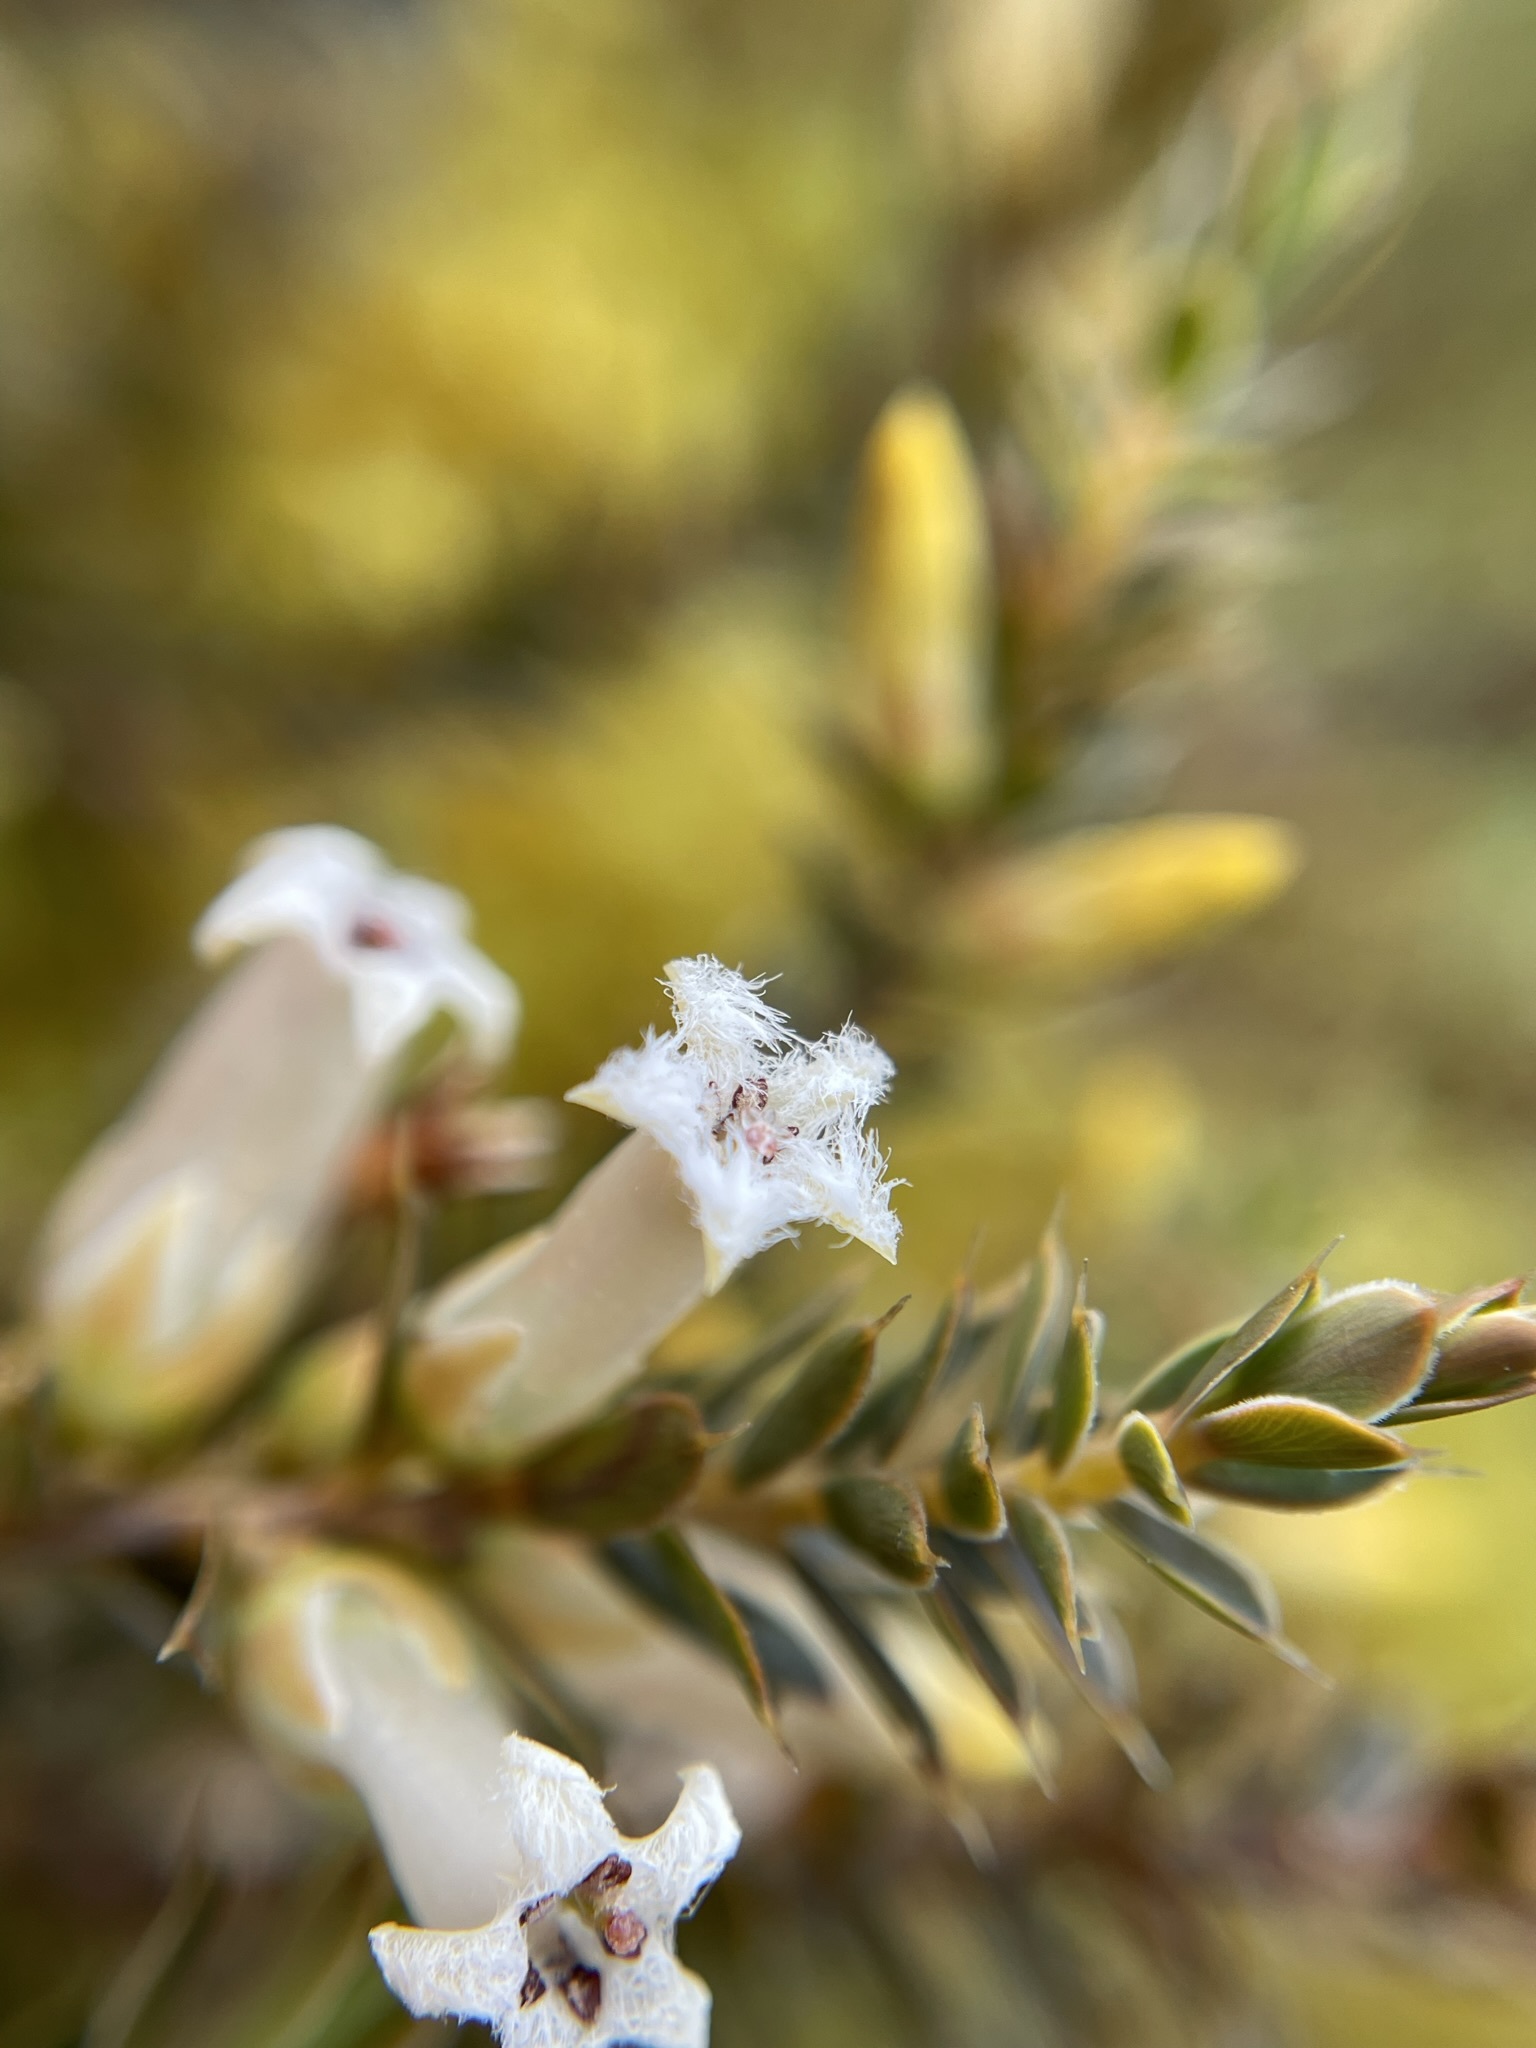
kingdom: Plantae
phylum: Tracheophyta
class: Magnoliopsida
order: Ericales
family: Ericaceae
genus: Styphelia
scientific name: Styphelia nesophila
